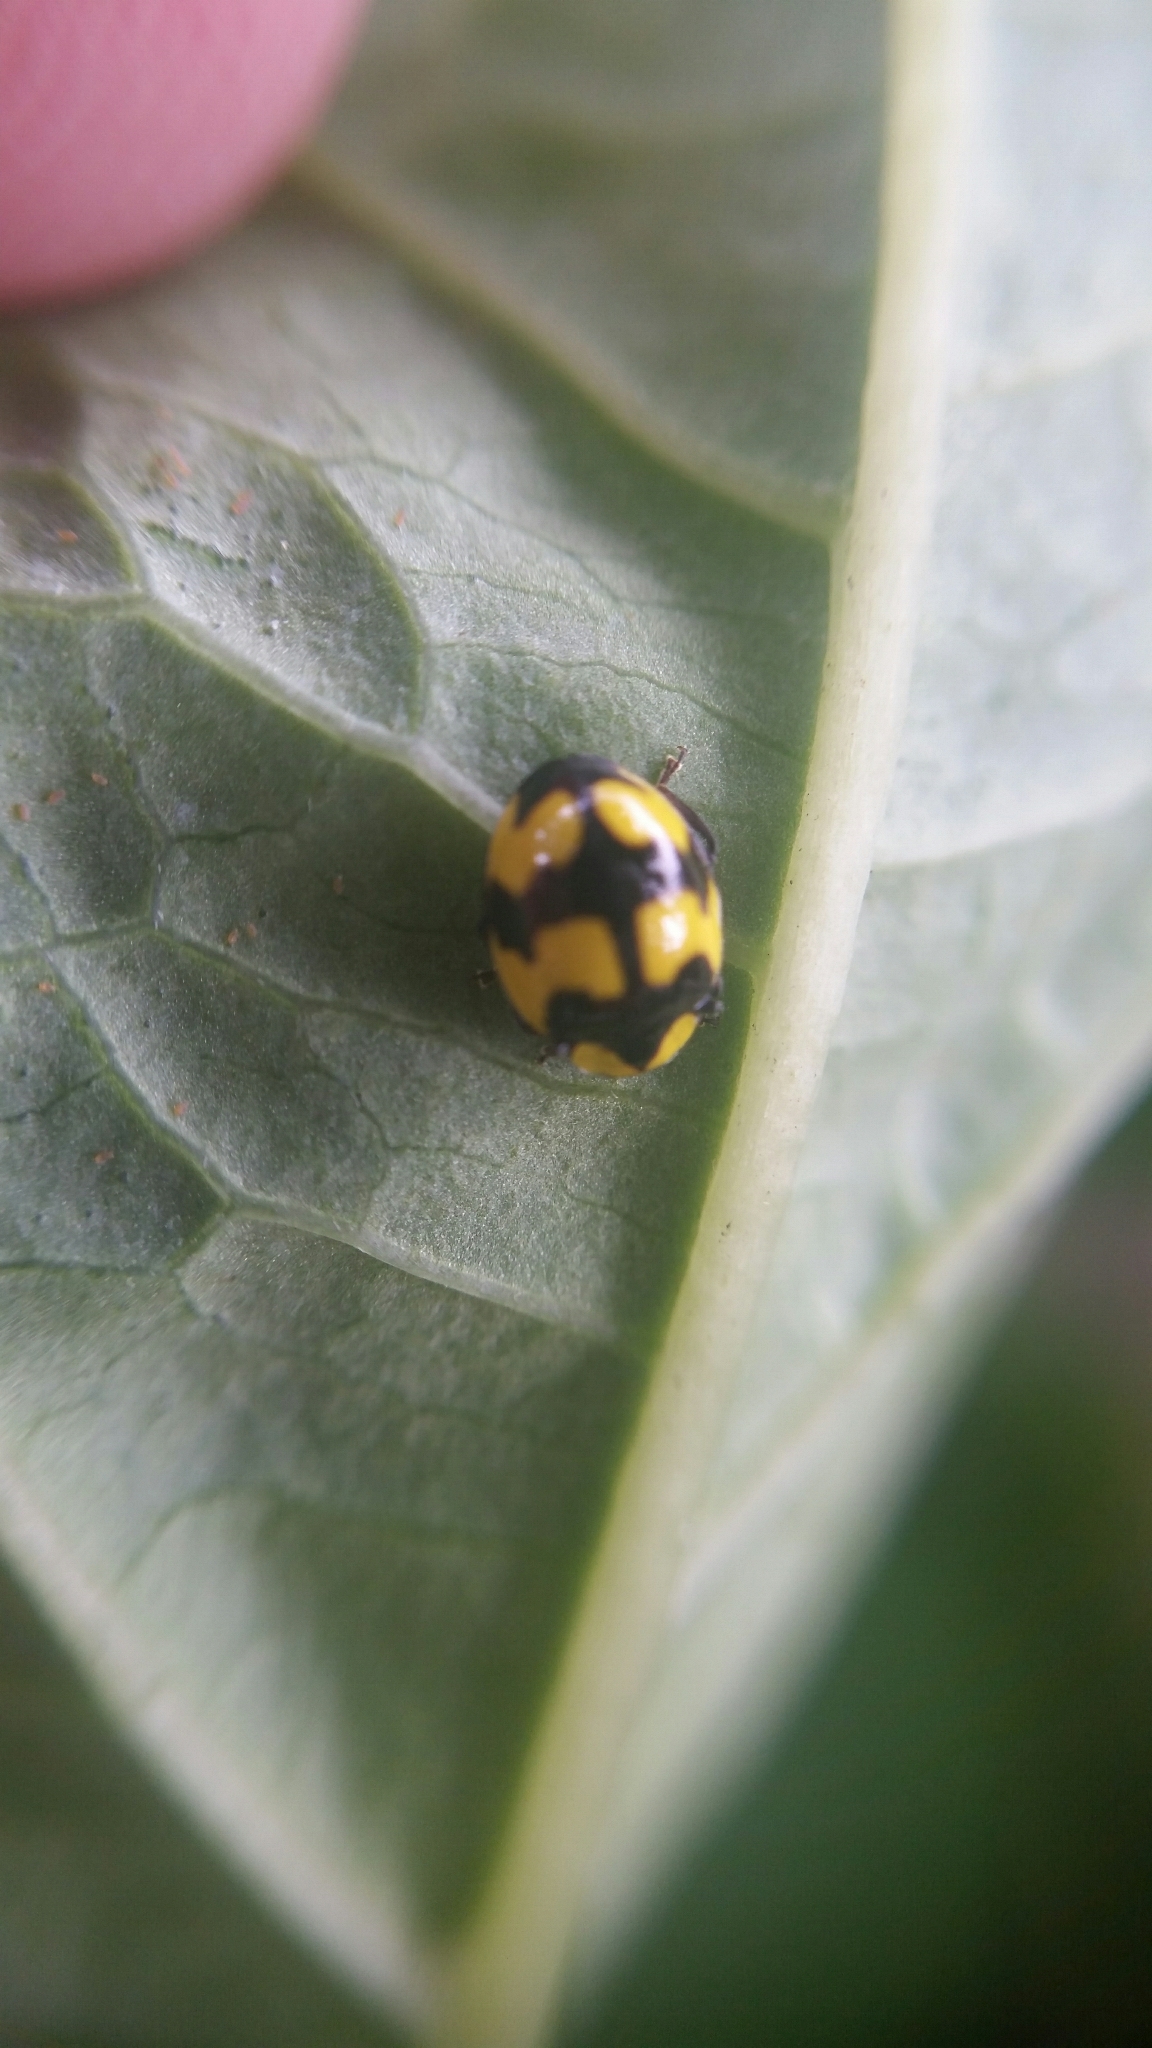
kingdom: Animalia
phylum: Arthropoda
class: Insecta
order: Coleoptera
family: Coccinellidae
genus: Illeis
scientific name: Illeis galbula
